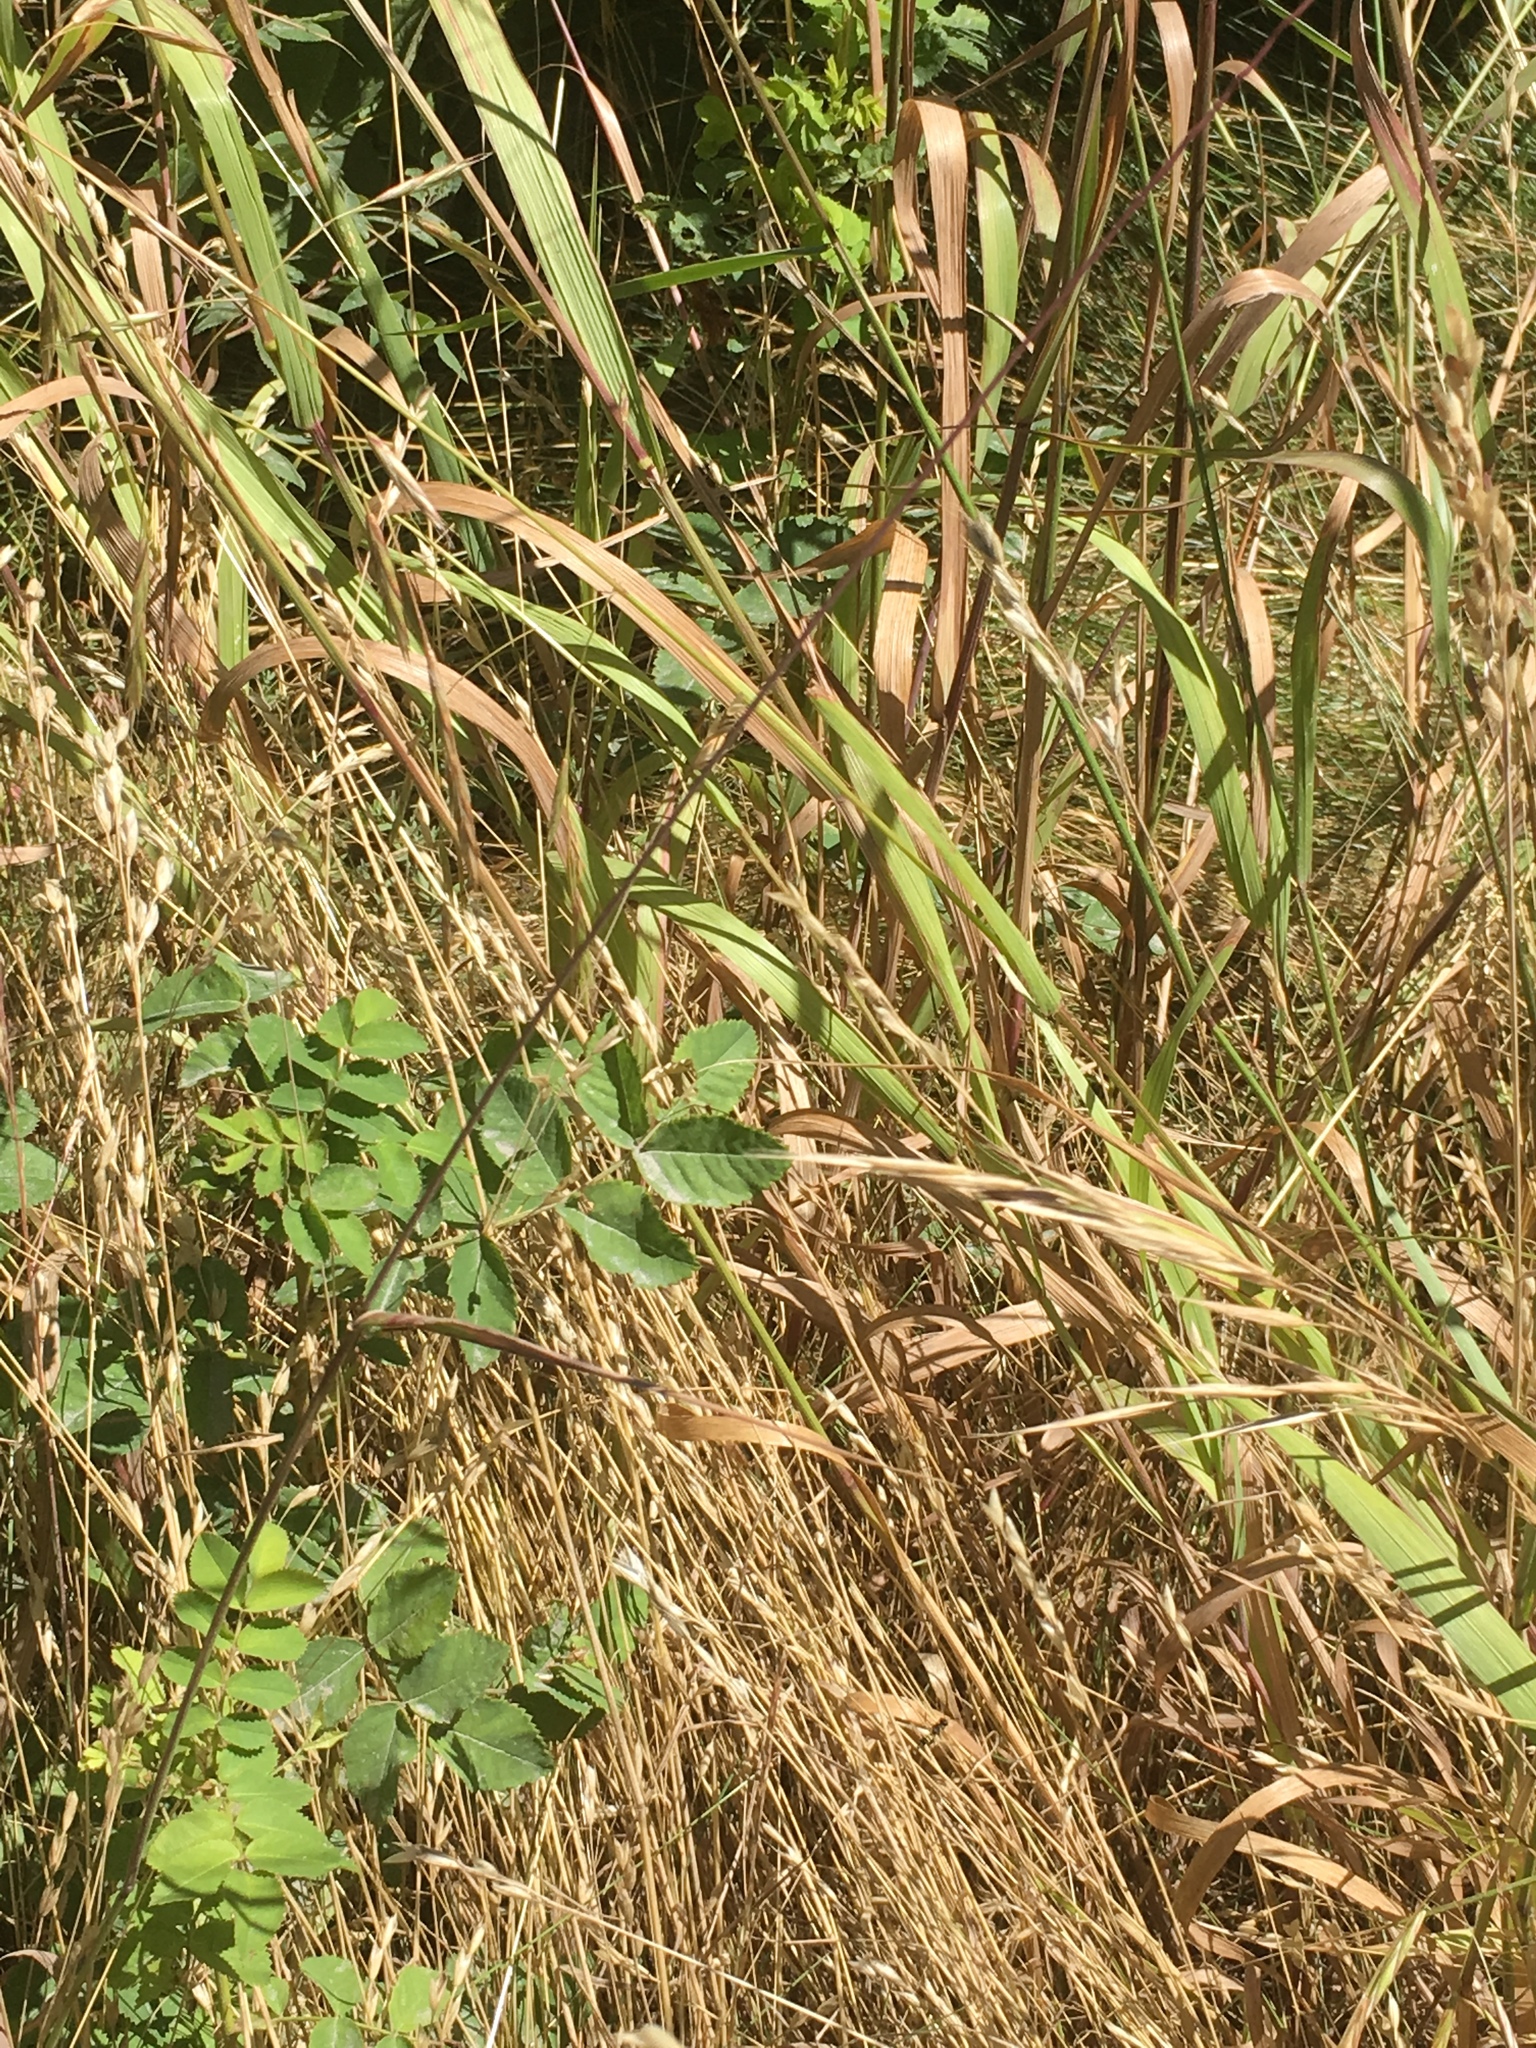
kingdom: Plantae
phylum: Tracheophyta
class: Liliopsida
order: Poales
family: Poaceae
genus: Elymus
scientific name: Elymus glaucus
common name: Blue wild rye
